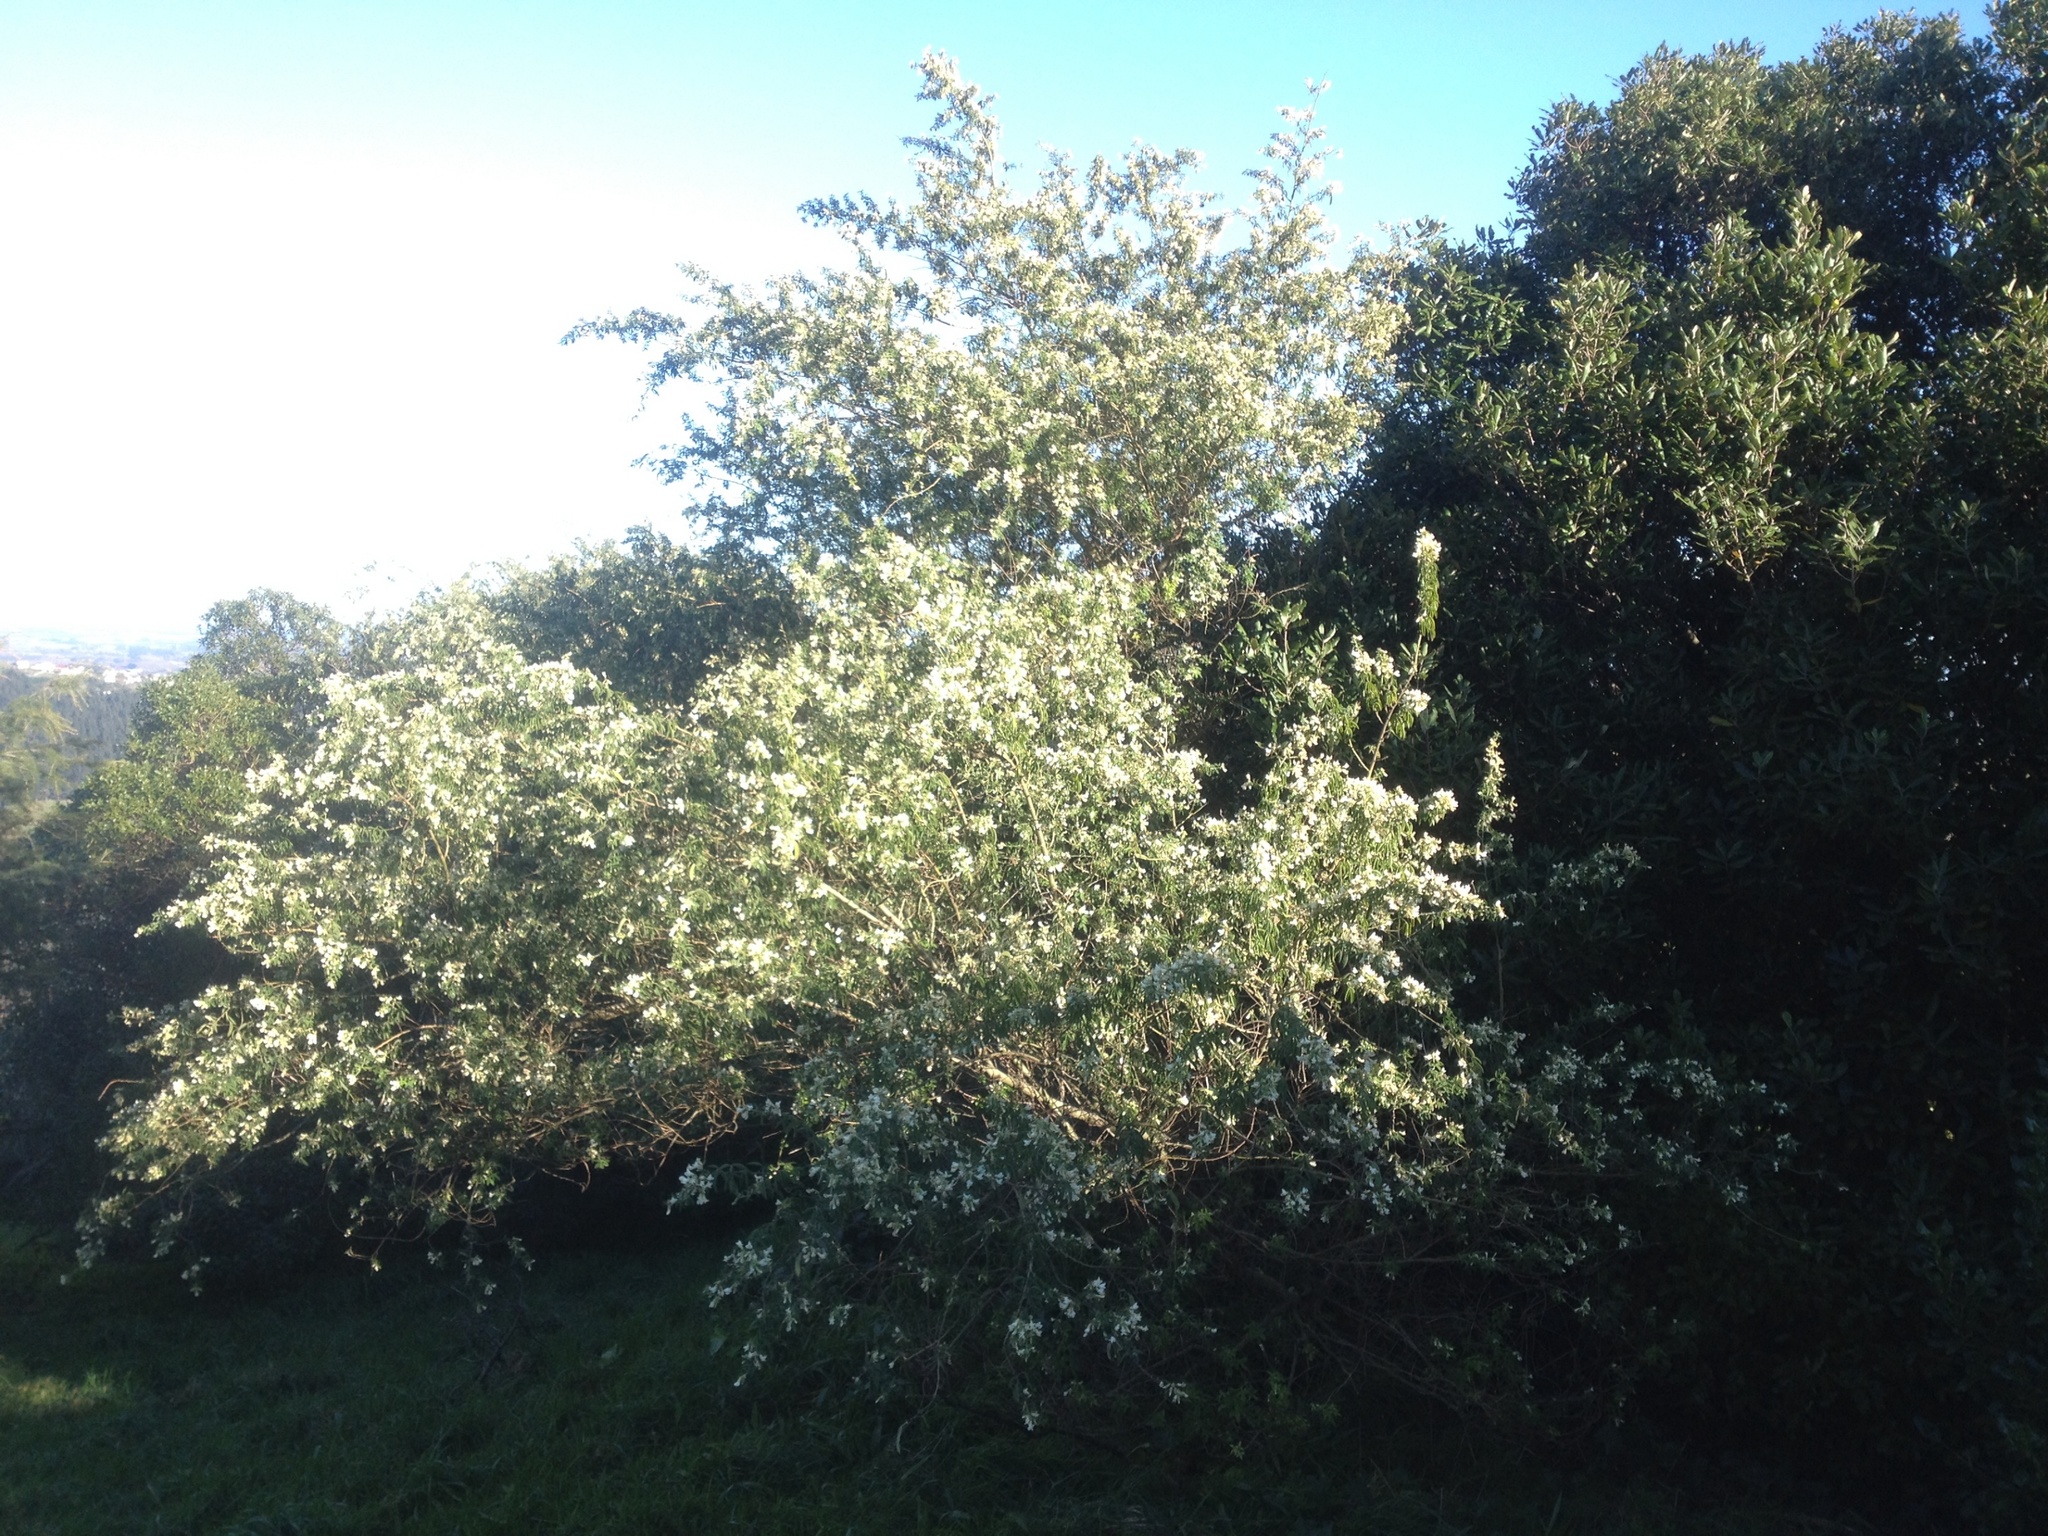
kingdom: Plantae
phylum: Tracheophyta
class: Magnoliopsida
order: Fabales
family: Fabaceae
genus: Chamaecytisus
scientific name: Chamaecytisus prolifer
